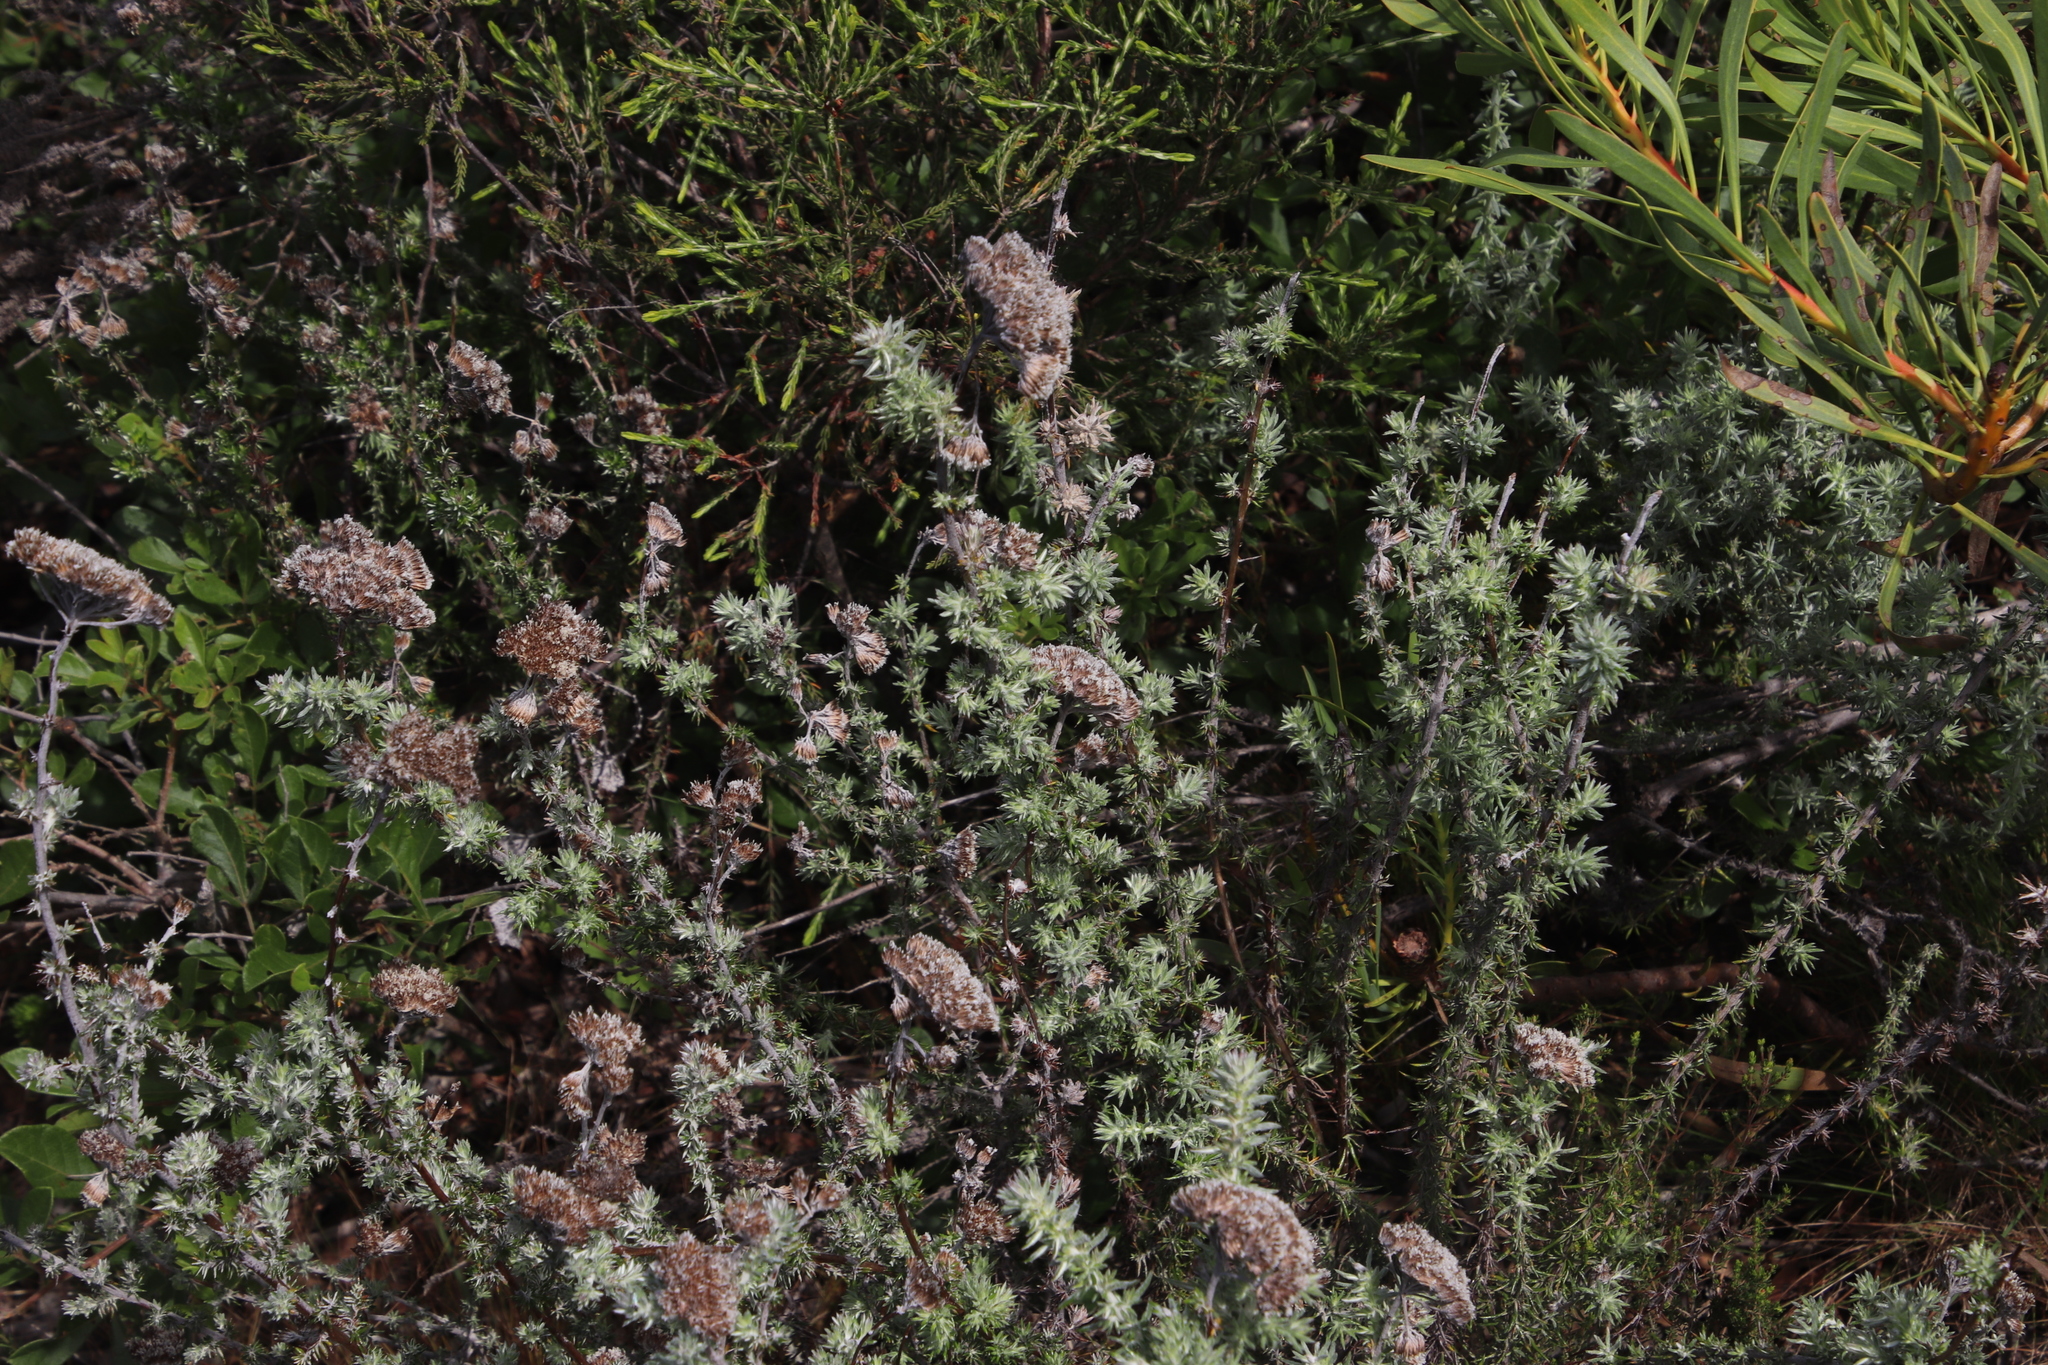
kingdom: Plantae
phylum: Tracheophyta
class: Magnoliopsida
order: Asterales
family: Asteraceae
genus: Metalasia
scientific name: Metalasia densa
